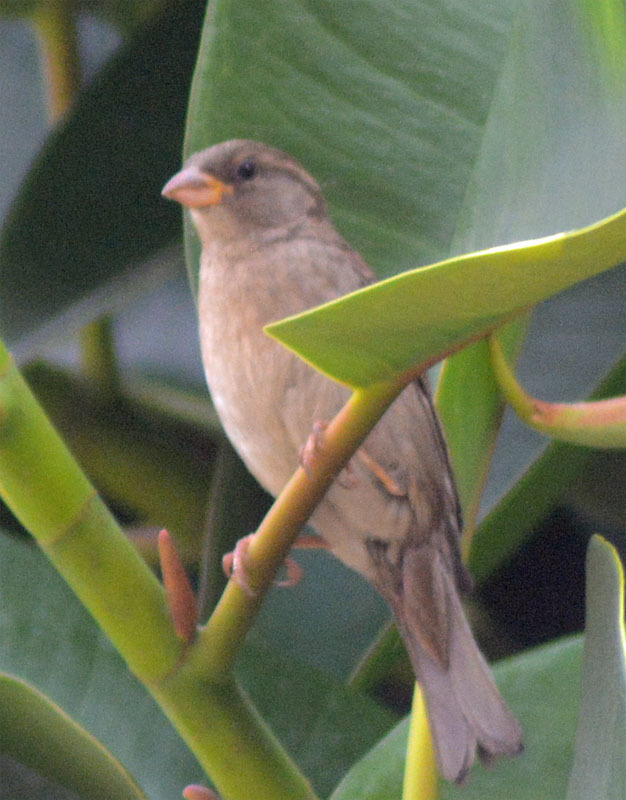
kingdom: Animalia
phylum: Chordata
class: Aves
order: Passeriformes
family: Passeridae
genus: Passer
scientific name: Passer domesticus
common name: House sparrow
